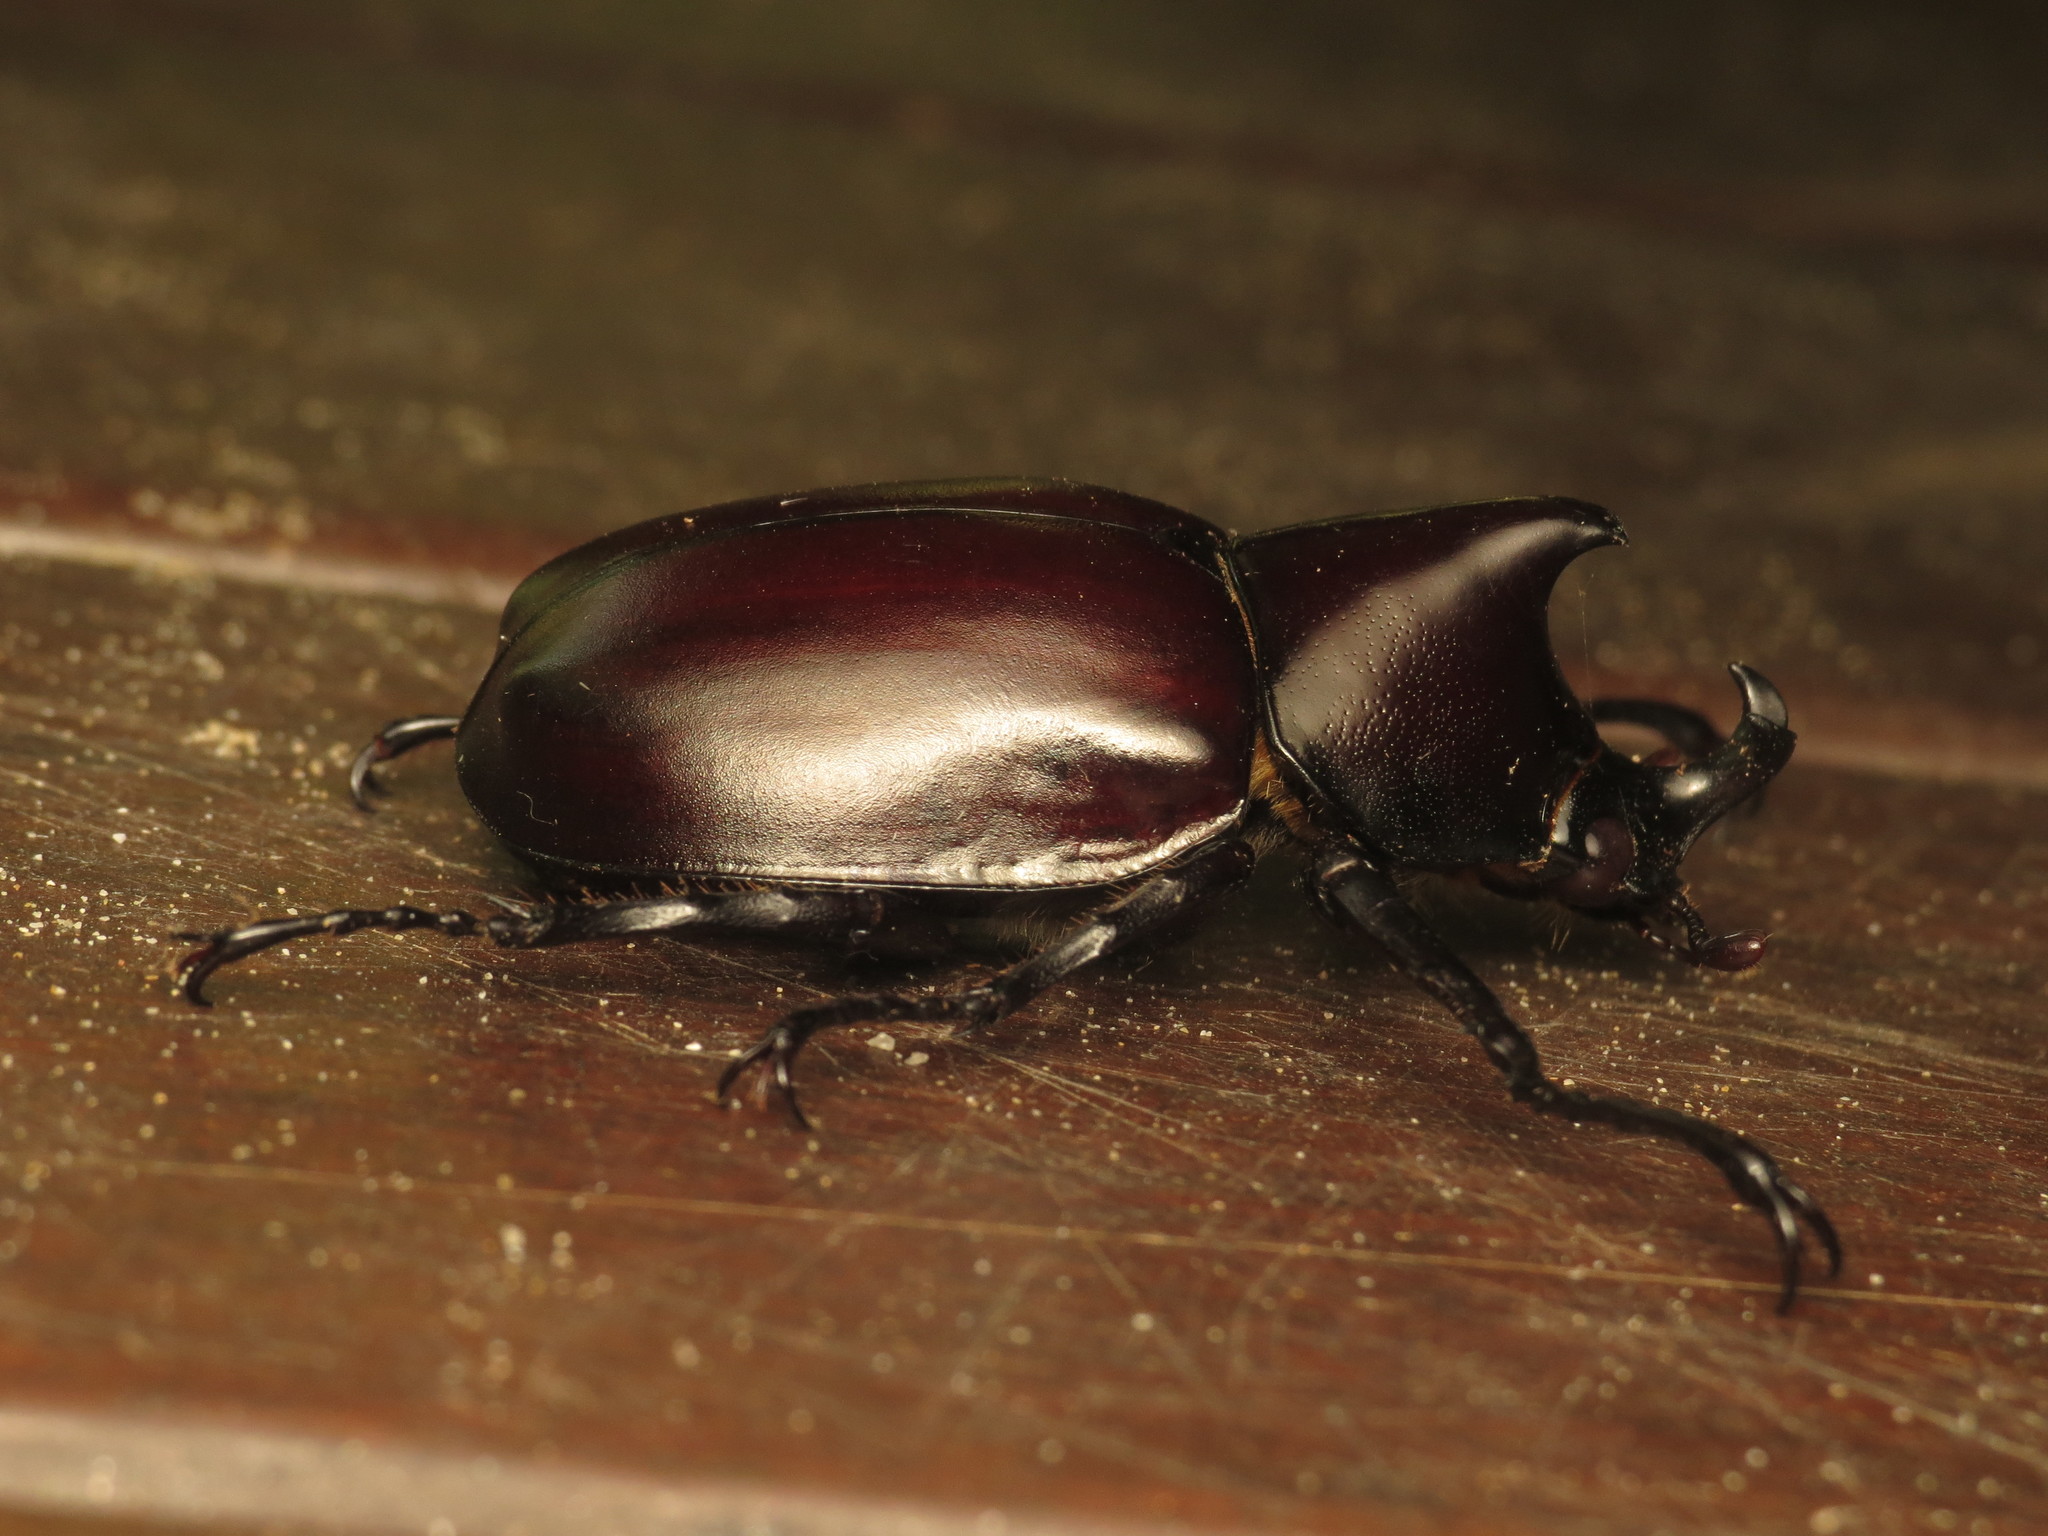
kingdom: Animalia
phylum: Arthropoda
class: Insecta
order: Coleoptera
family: Scarabaeidae
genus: Xylotrupes
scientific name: Xylotrupes australicus
